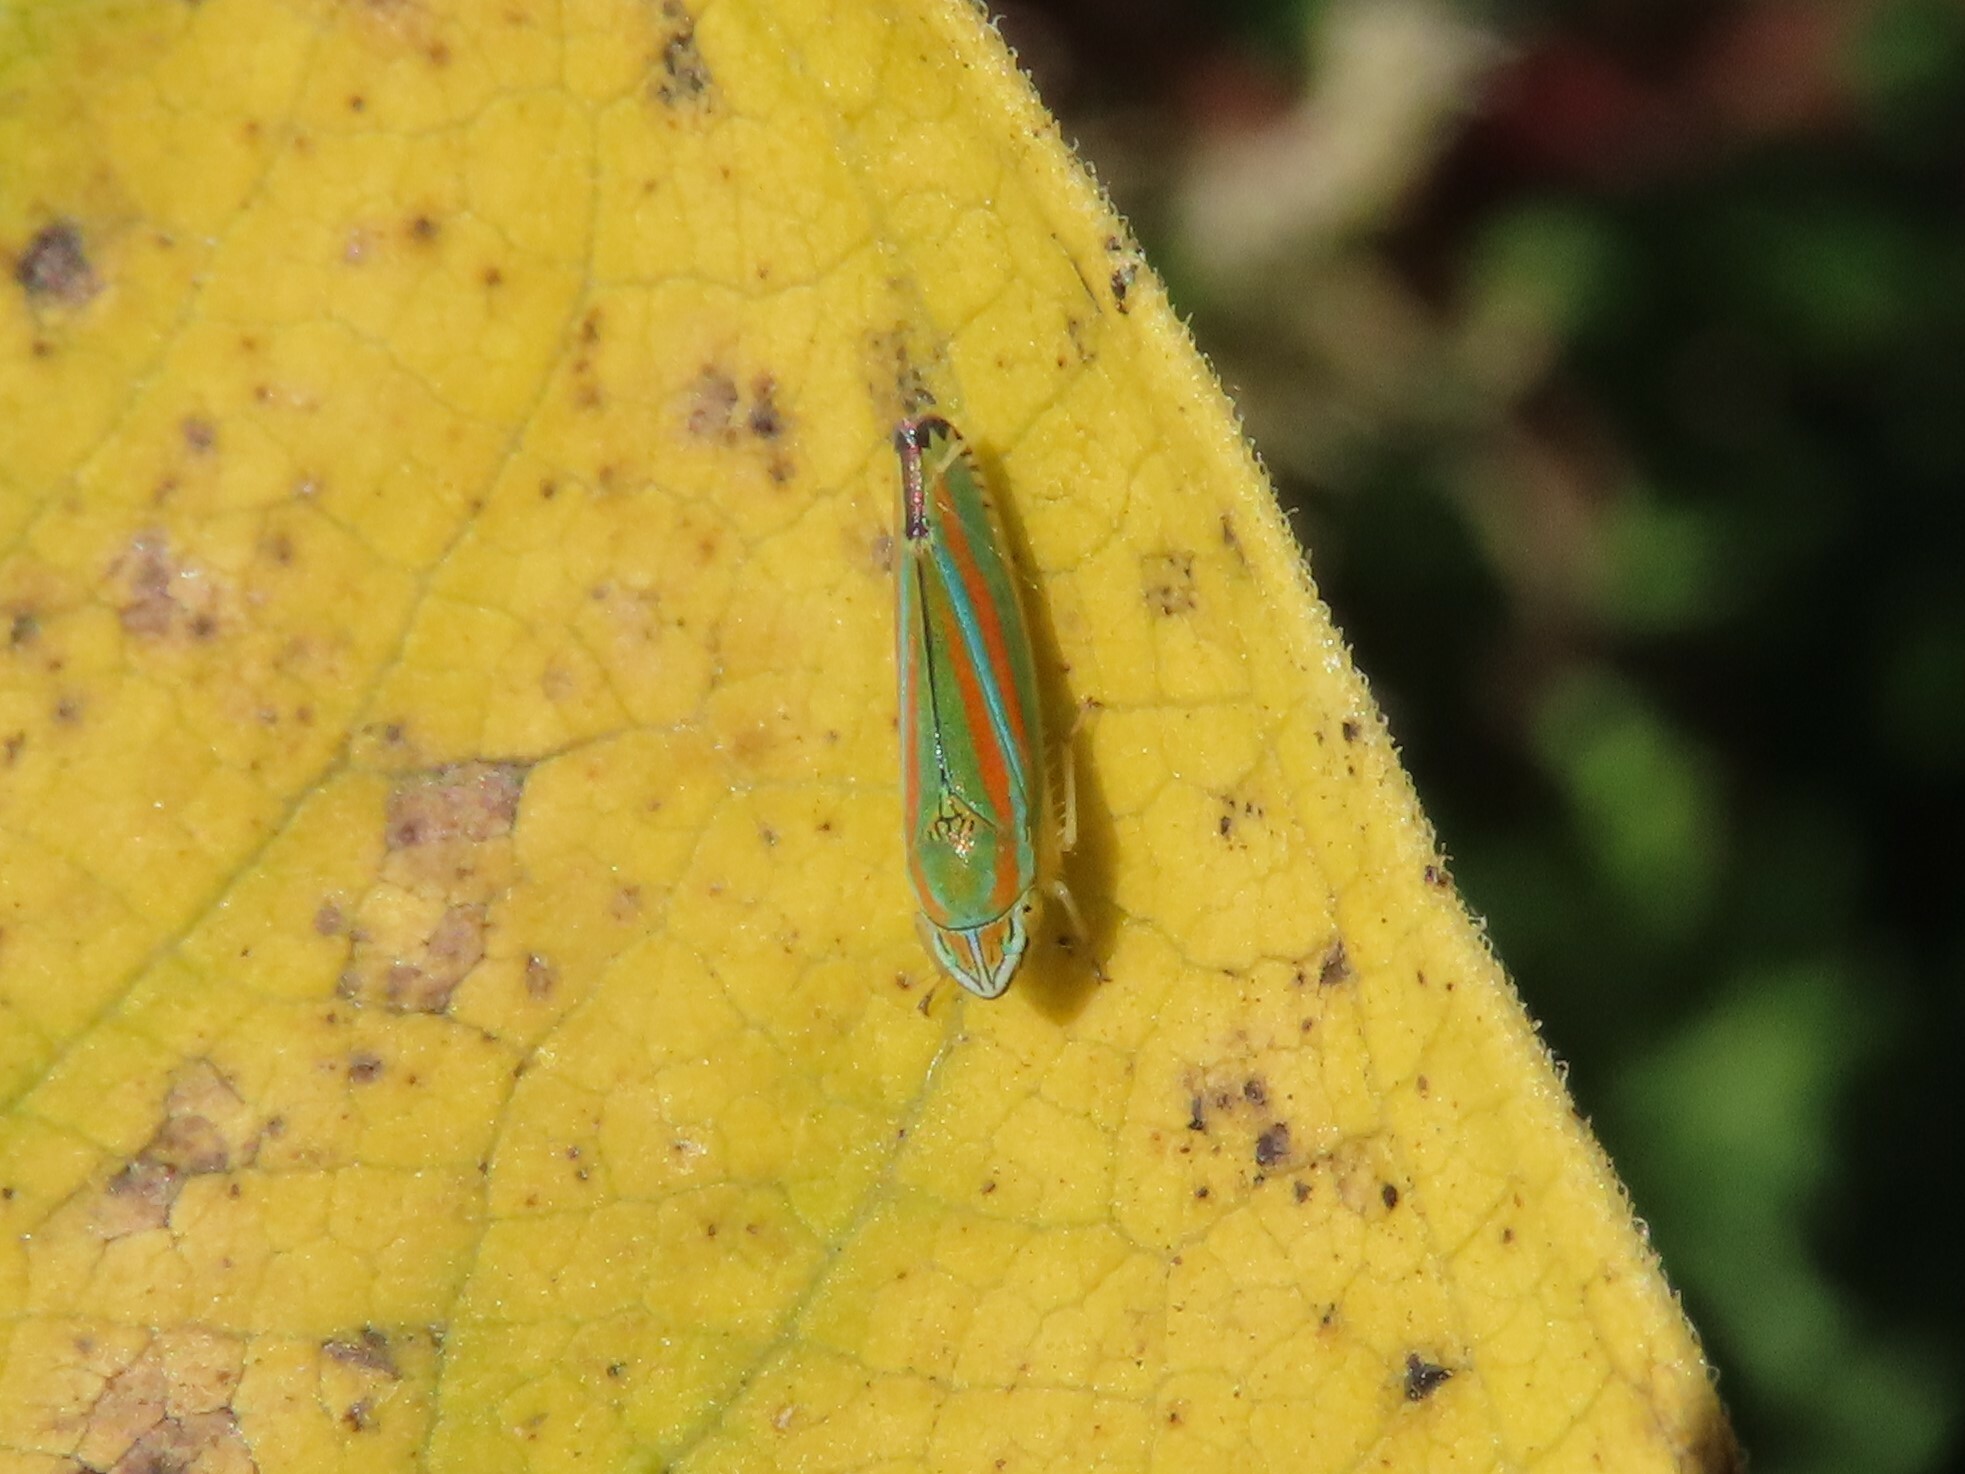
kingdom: Animalia
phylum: Arthropoda
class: Insecta
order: Hemiptera
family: Cicadellidae
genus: Graphocephala
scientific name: Graphocephala versuta
